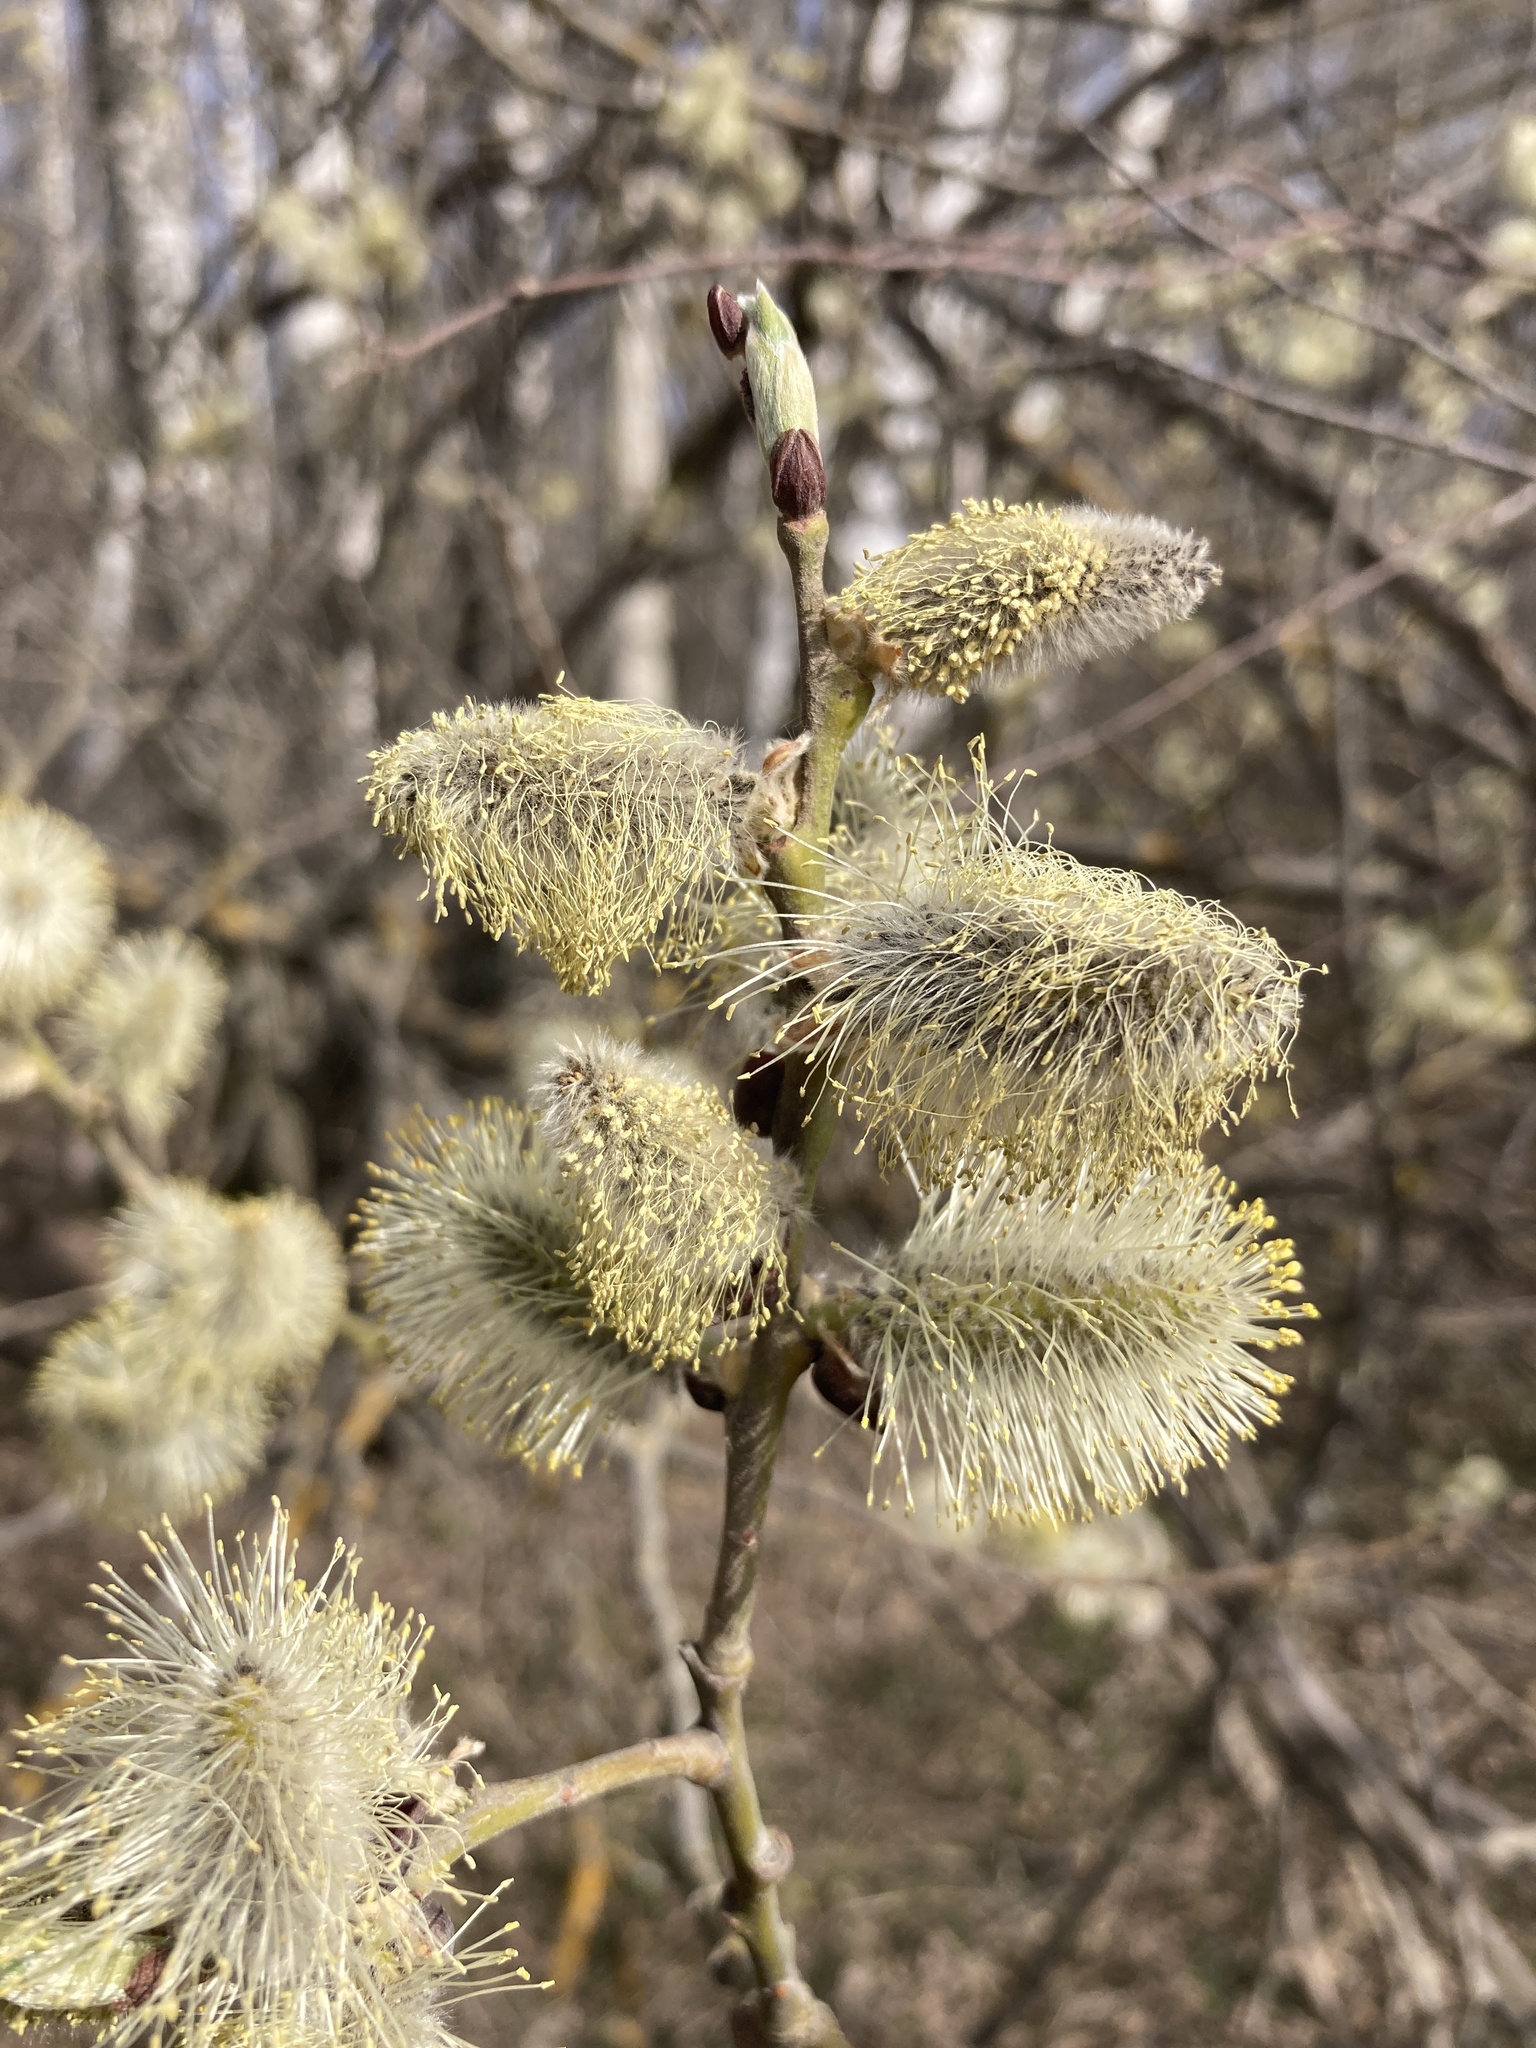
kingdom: Plantae
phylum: Tracheophyta
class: Magnoliopsida
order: Malpighiales
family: Salicaceae
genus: Salix
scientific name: Salix caprea
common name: Goat willow
